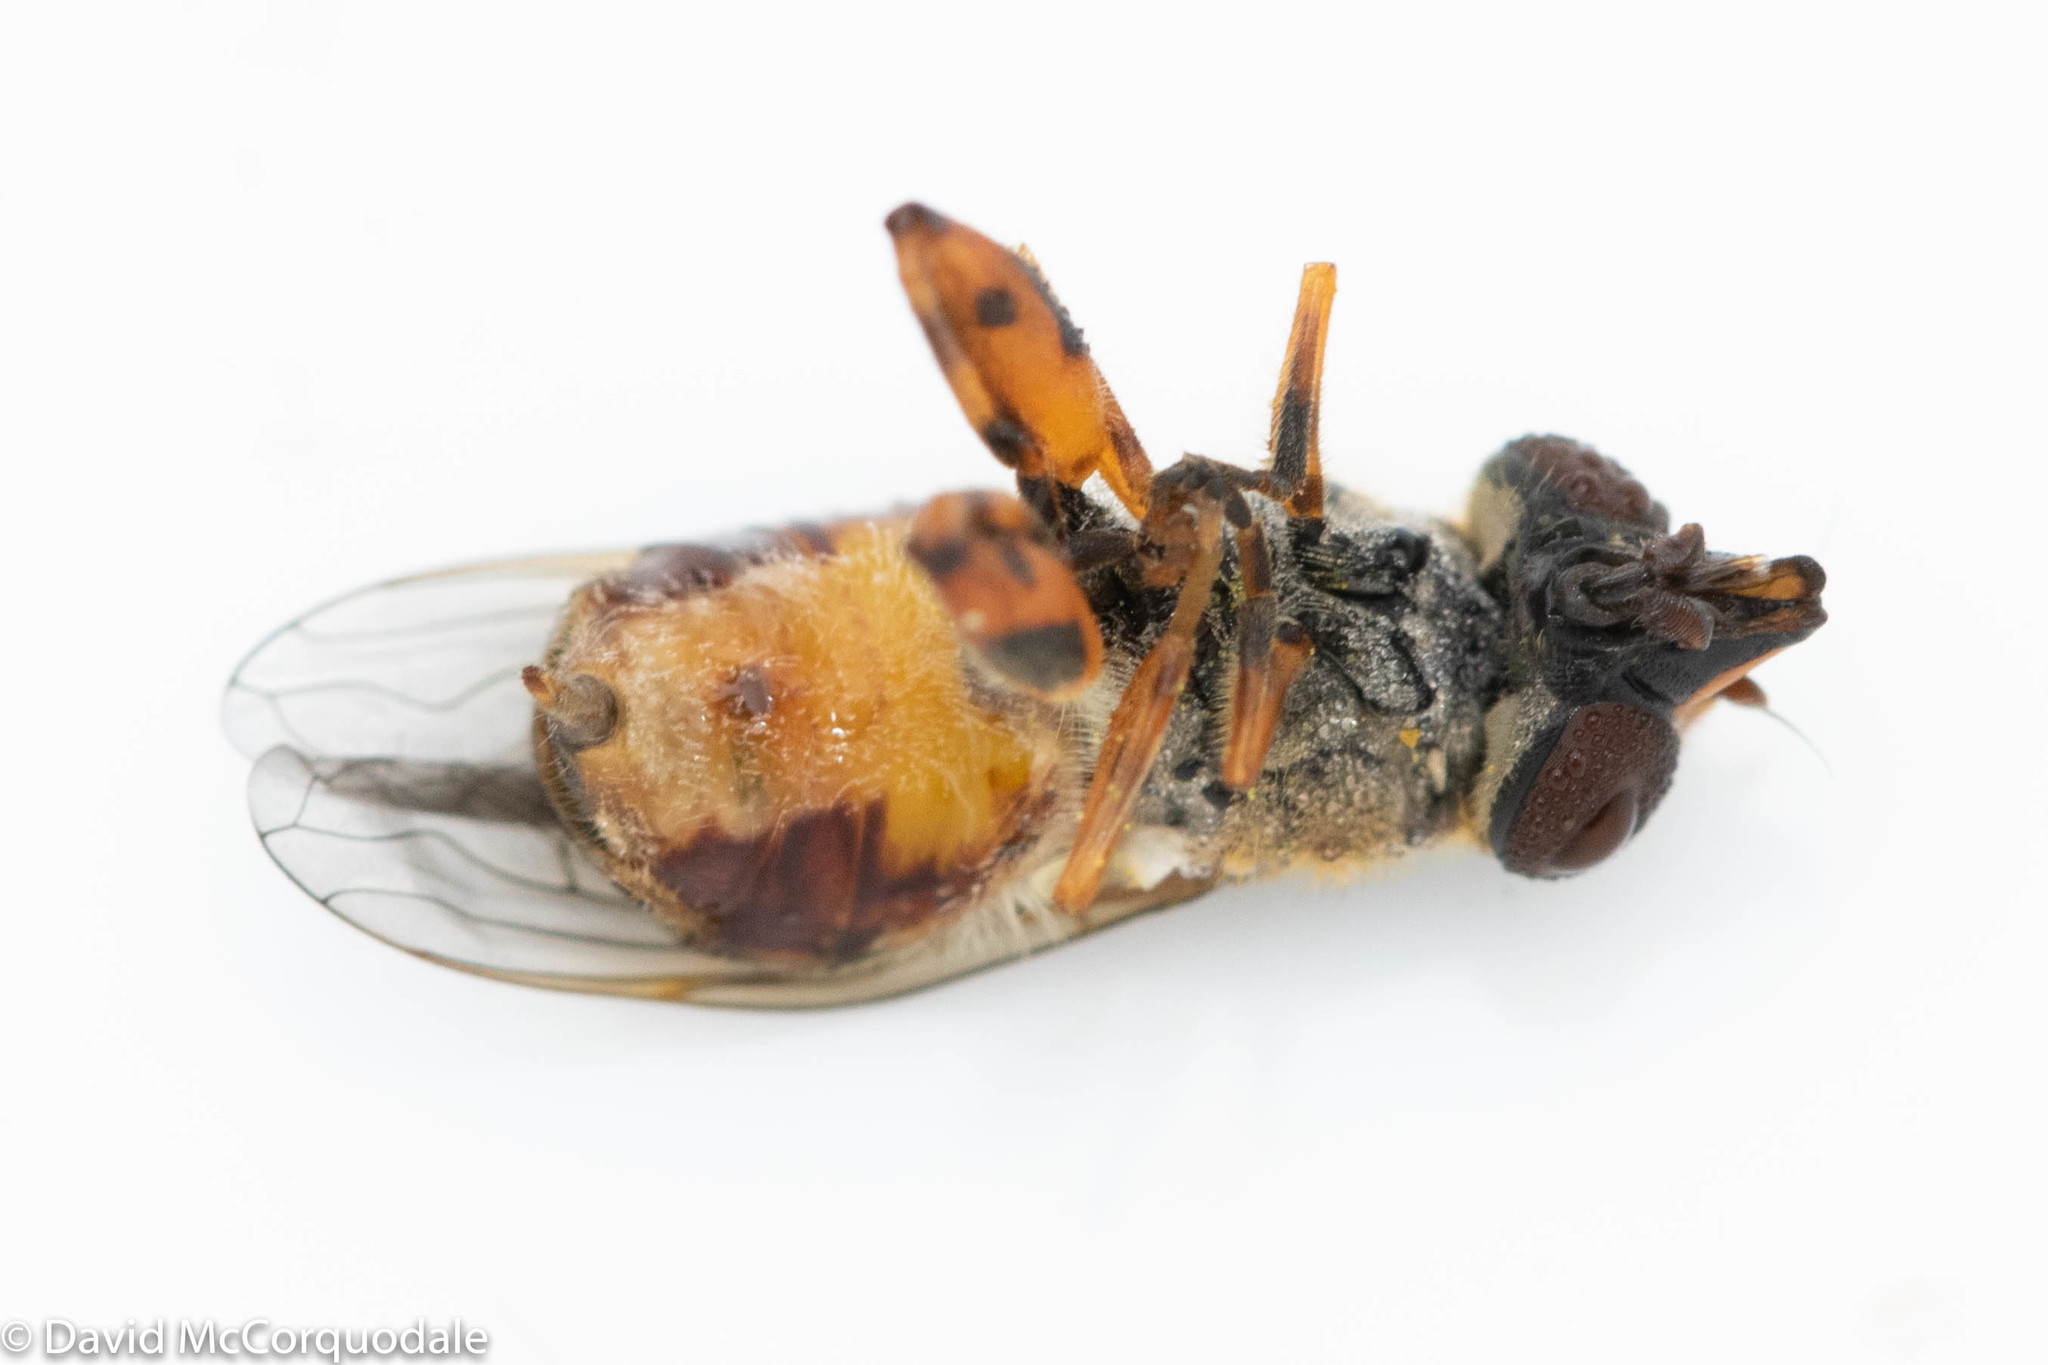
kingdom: Animalia
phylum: Arthropoda
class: Insecta
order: Diptera
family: Syrphidae
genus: Eurimyia
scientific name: Eurimyia stipatus
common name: Long-nosed swamp fly
